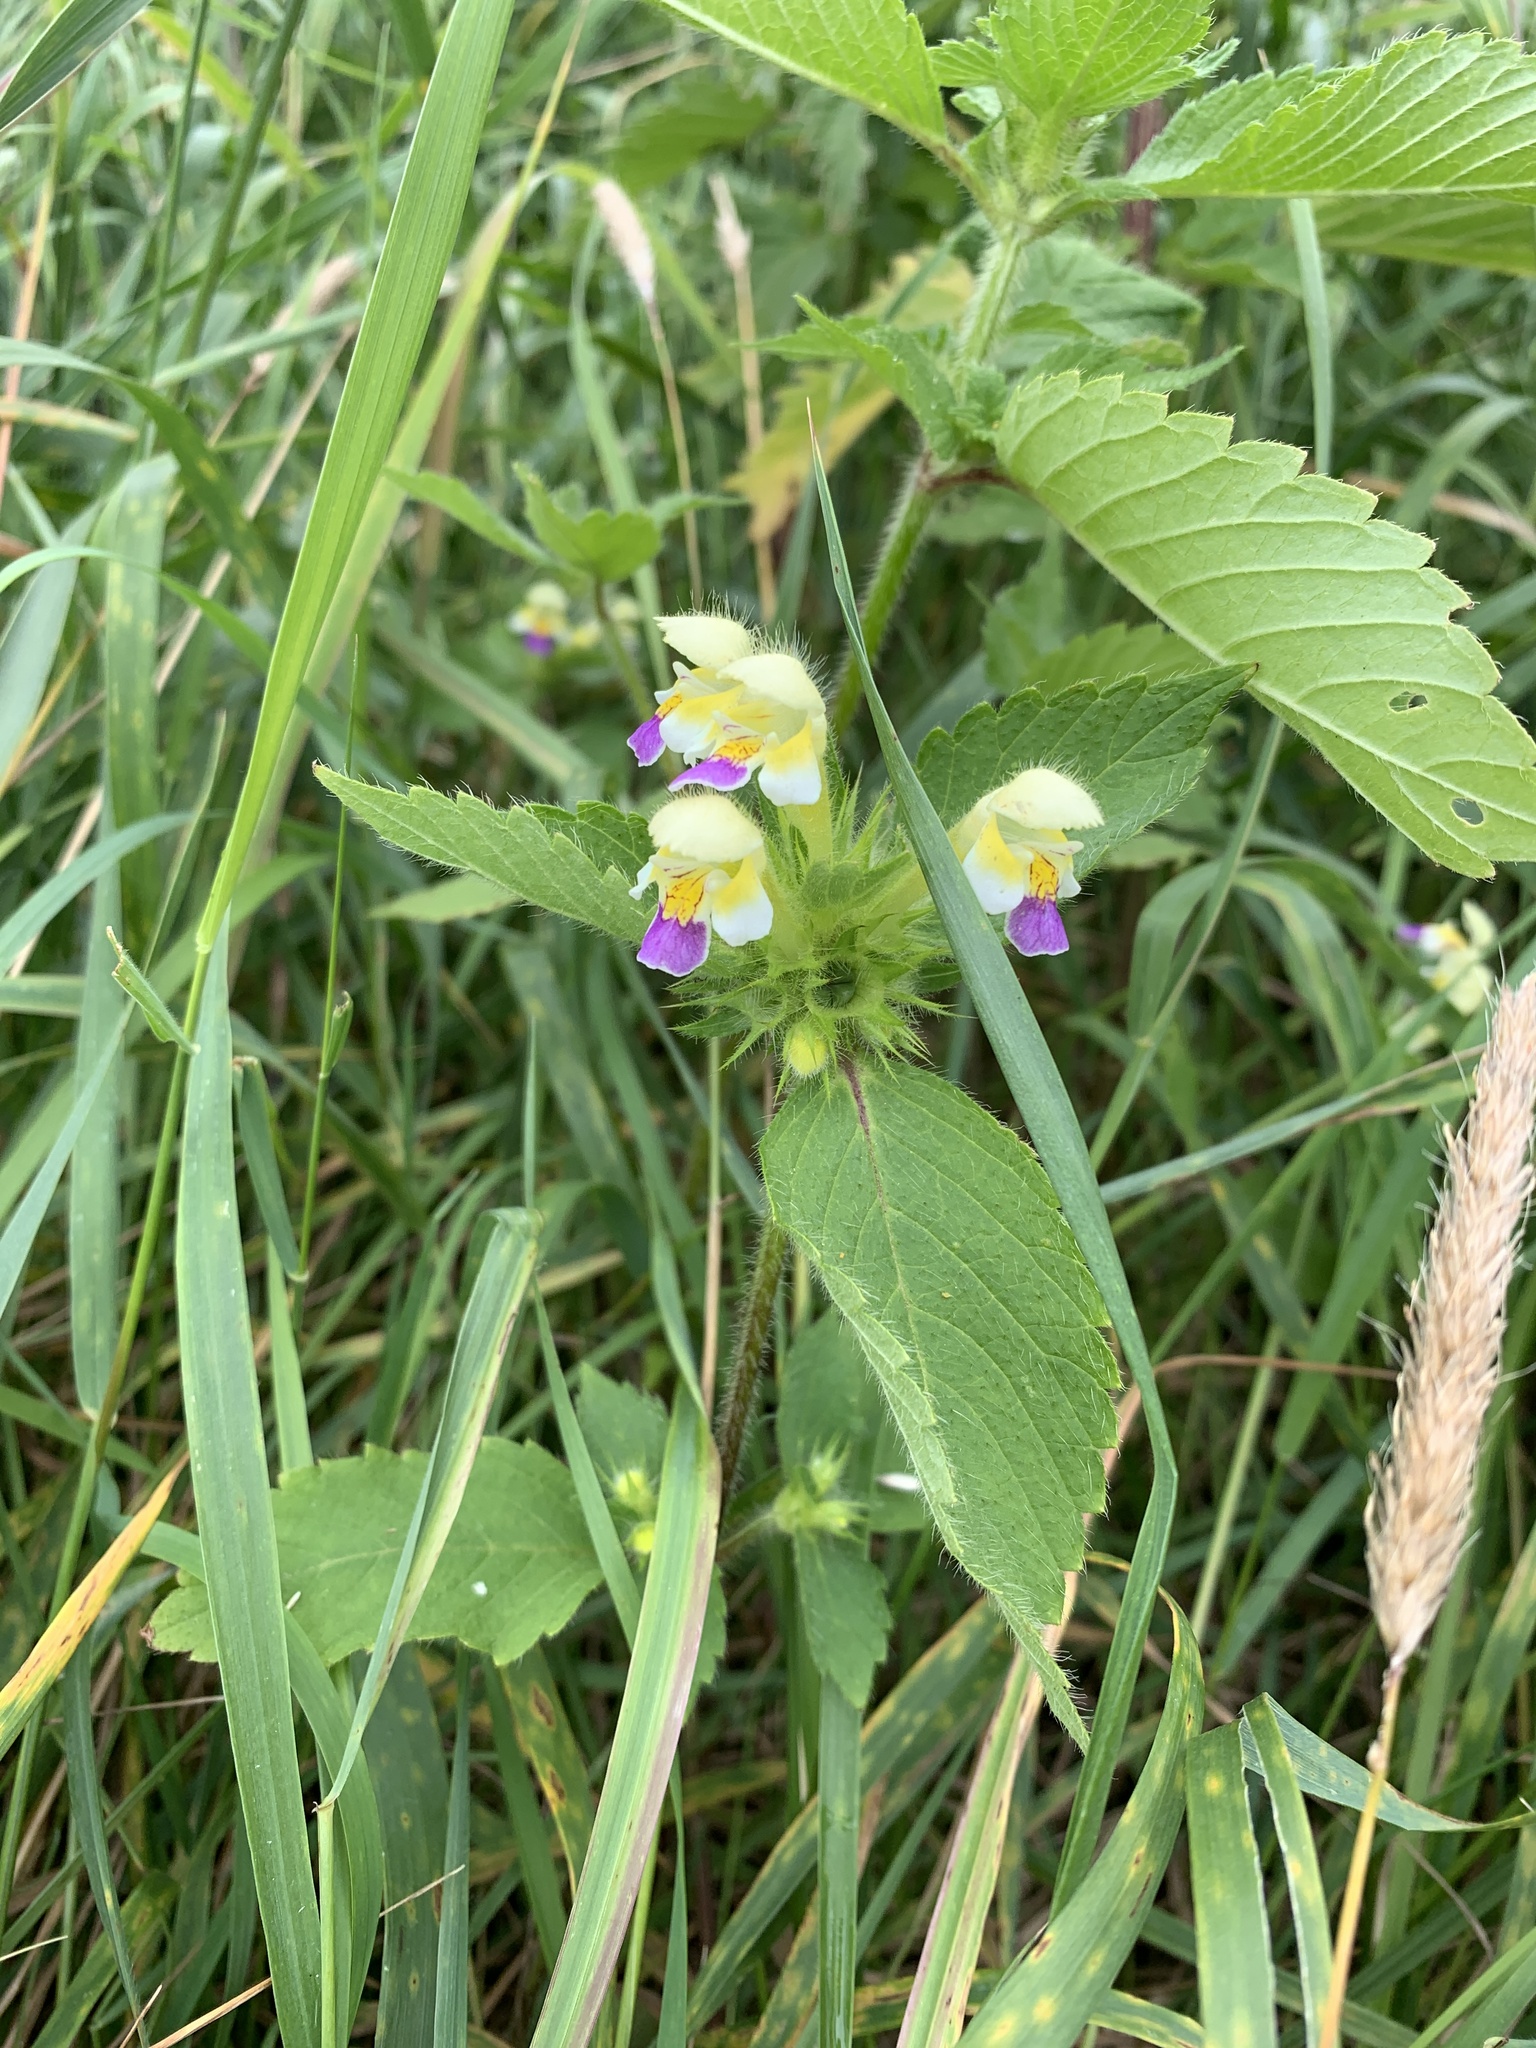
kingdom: Plantae
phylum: Tracheophyta
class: Magnoliopsida
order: Lamiales
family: Lamiaceae
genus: Galeopsis
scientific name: Galeopsis speciosa
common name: Large-flowered hemp-nettle
